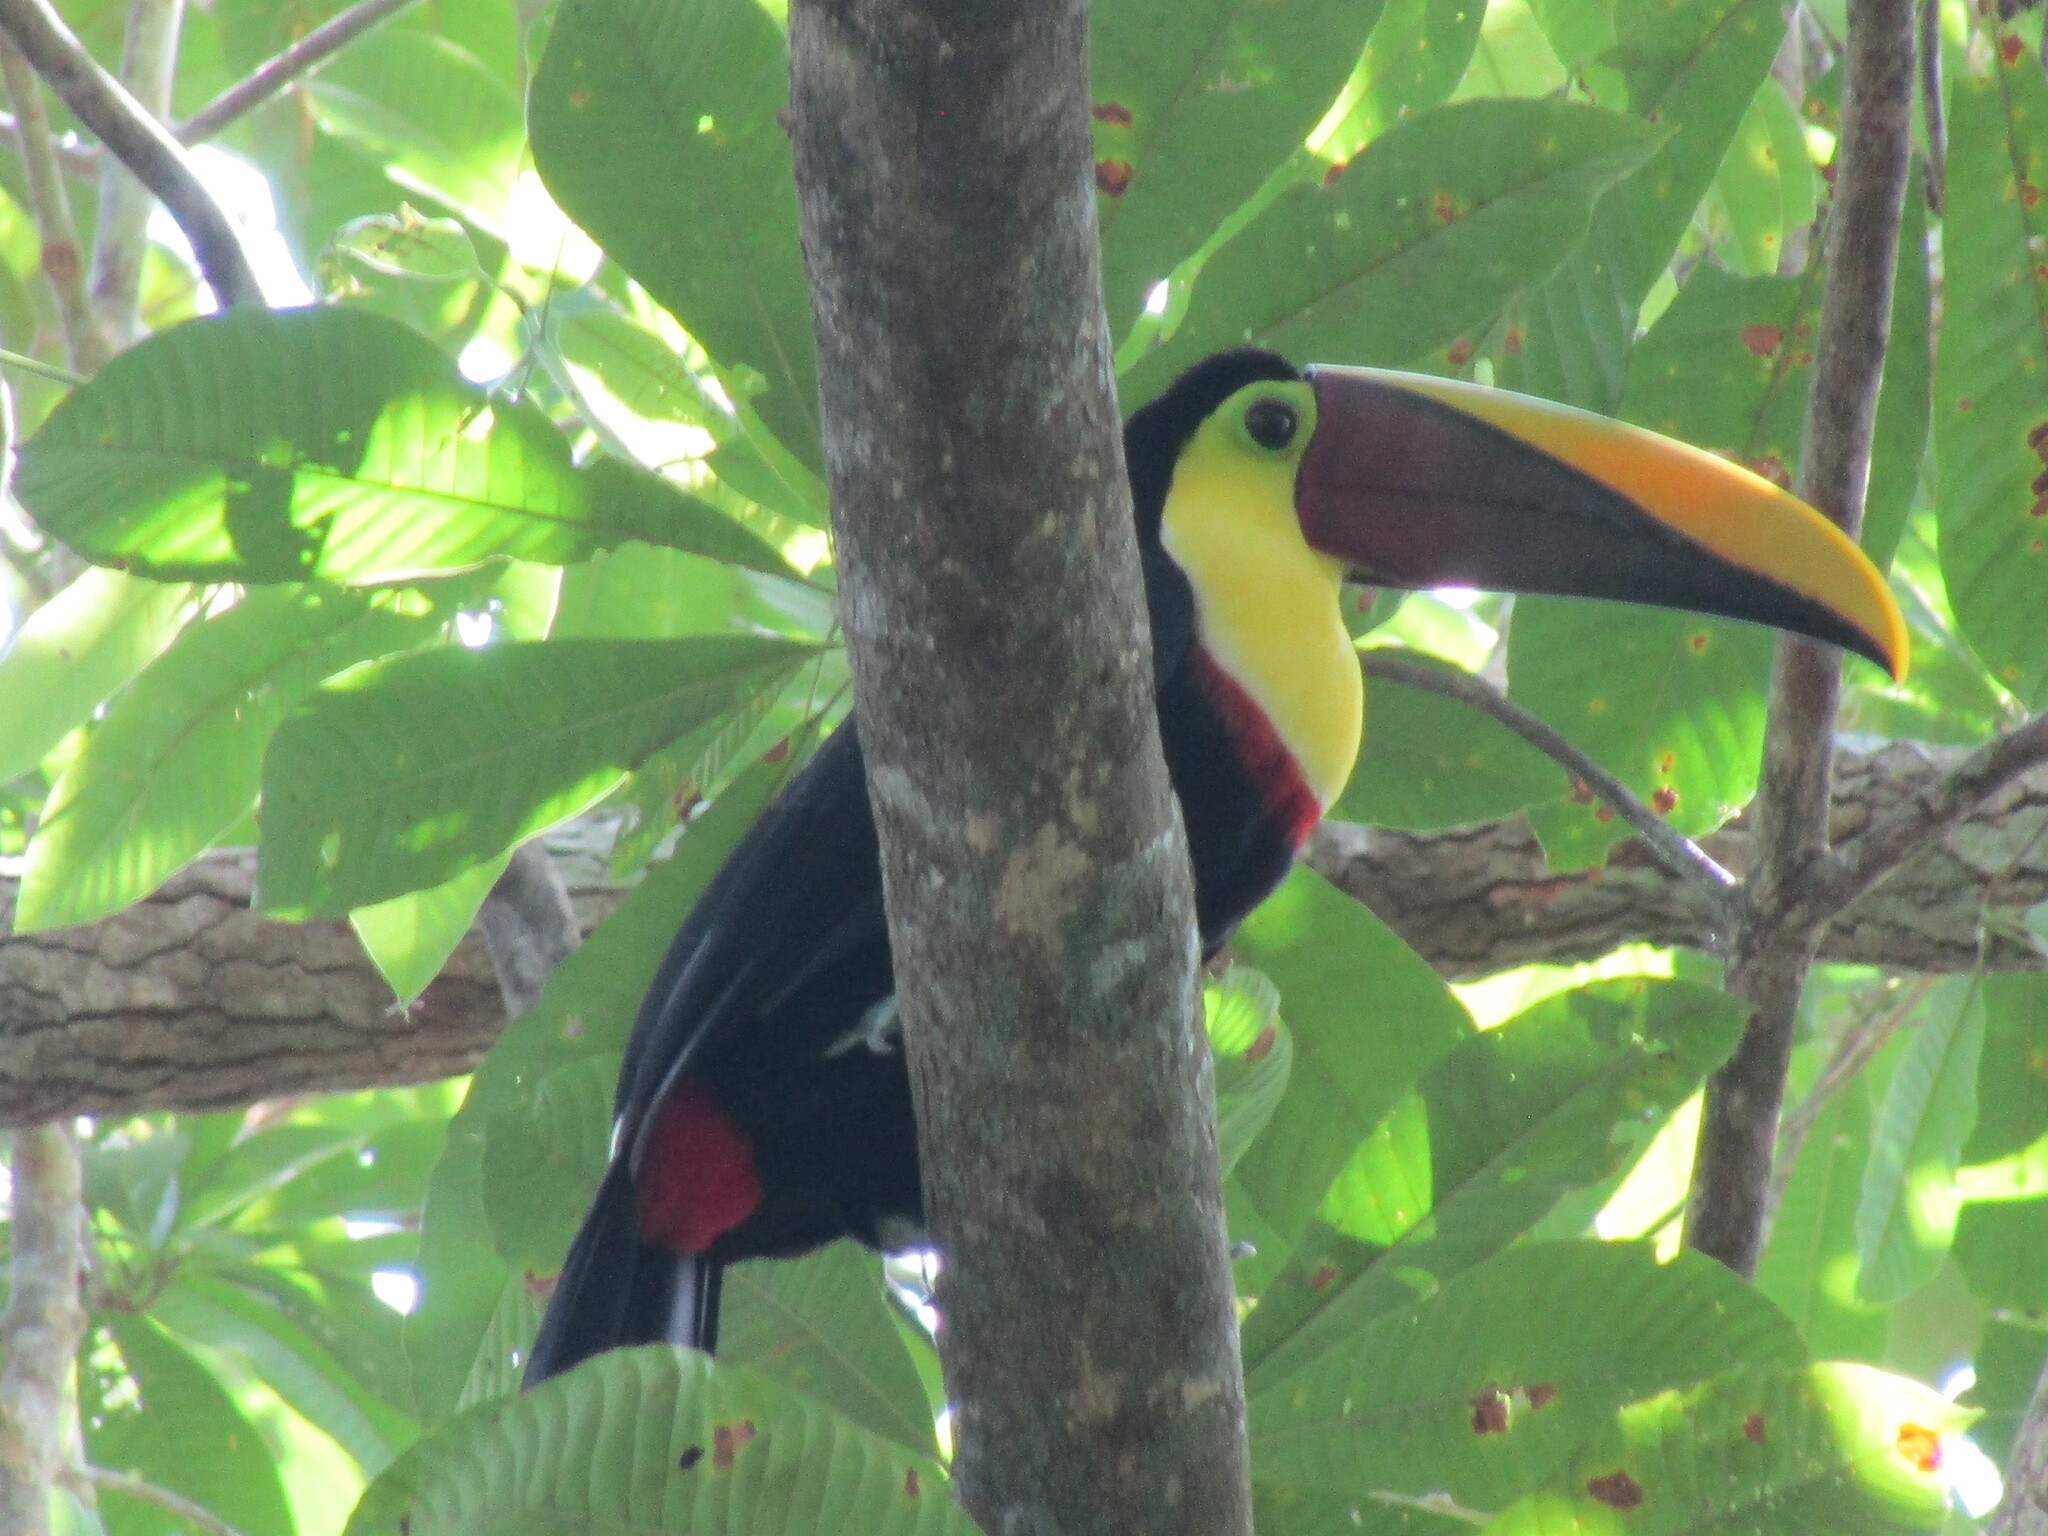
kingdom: Animalia
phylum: Chordata
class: Aves
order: Piciformes
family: Ramphastidae
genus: Ramphastos
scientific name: Ramphastos ambiguus
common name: Yellow-throated toucan
